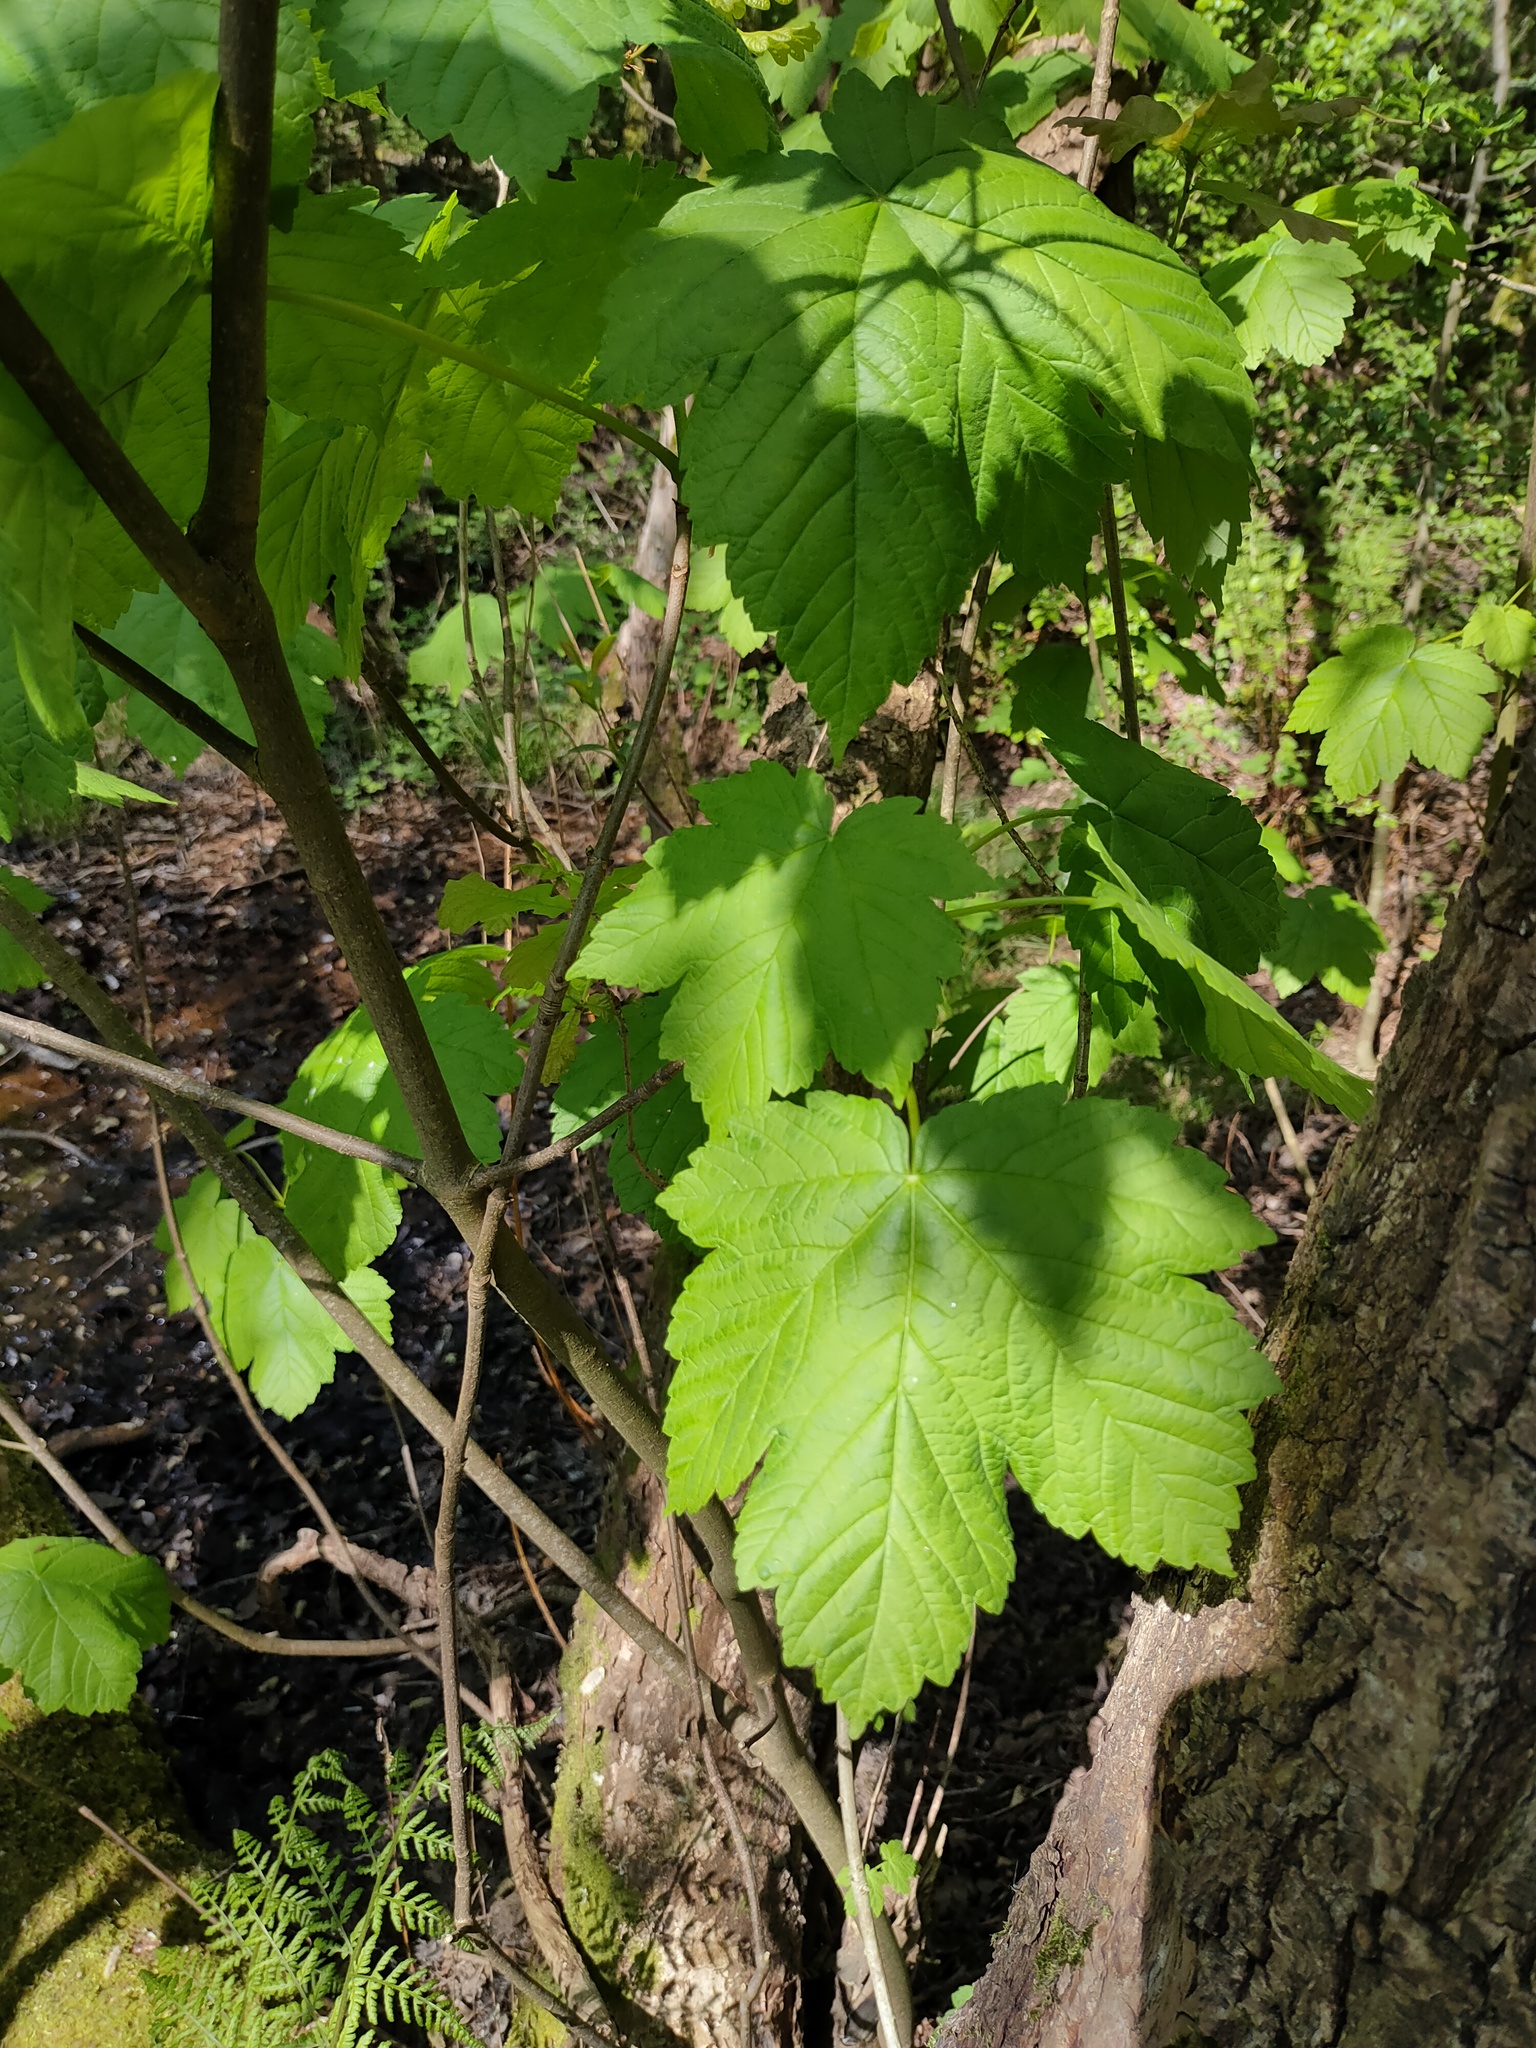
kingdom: Plantae
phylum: Tracheophyta
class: Magnoliopsida
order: Sapindales
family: Sapindaceae
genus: Acer
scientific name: Acer pseudoplatanus
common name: Sycamore
